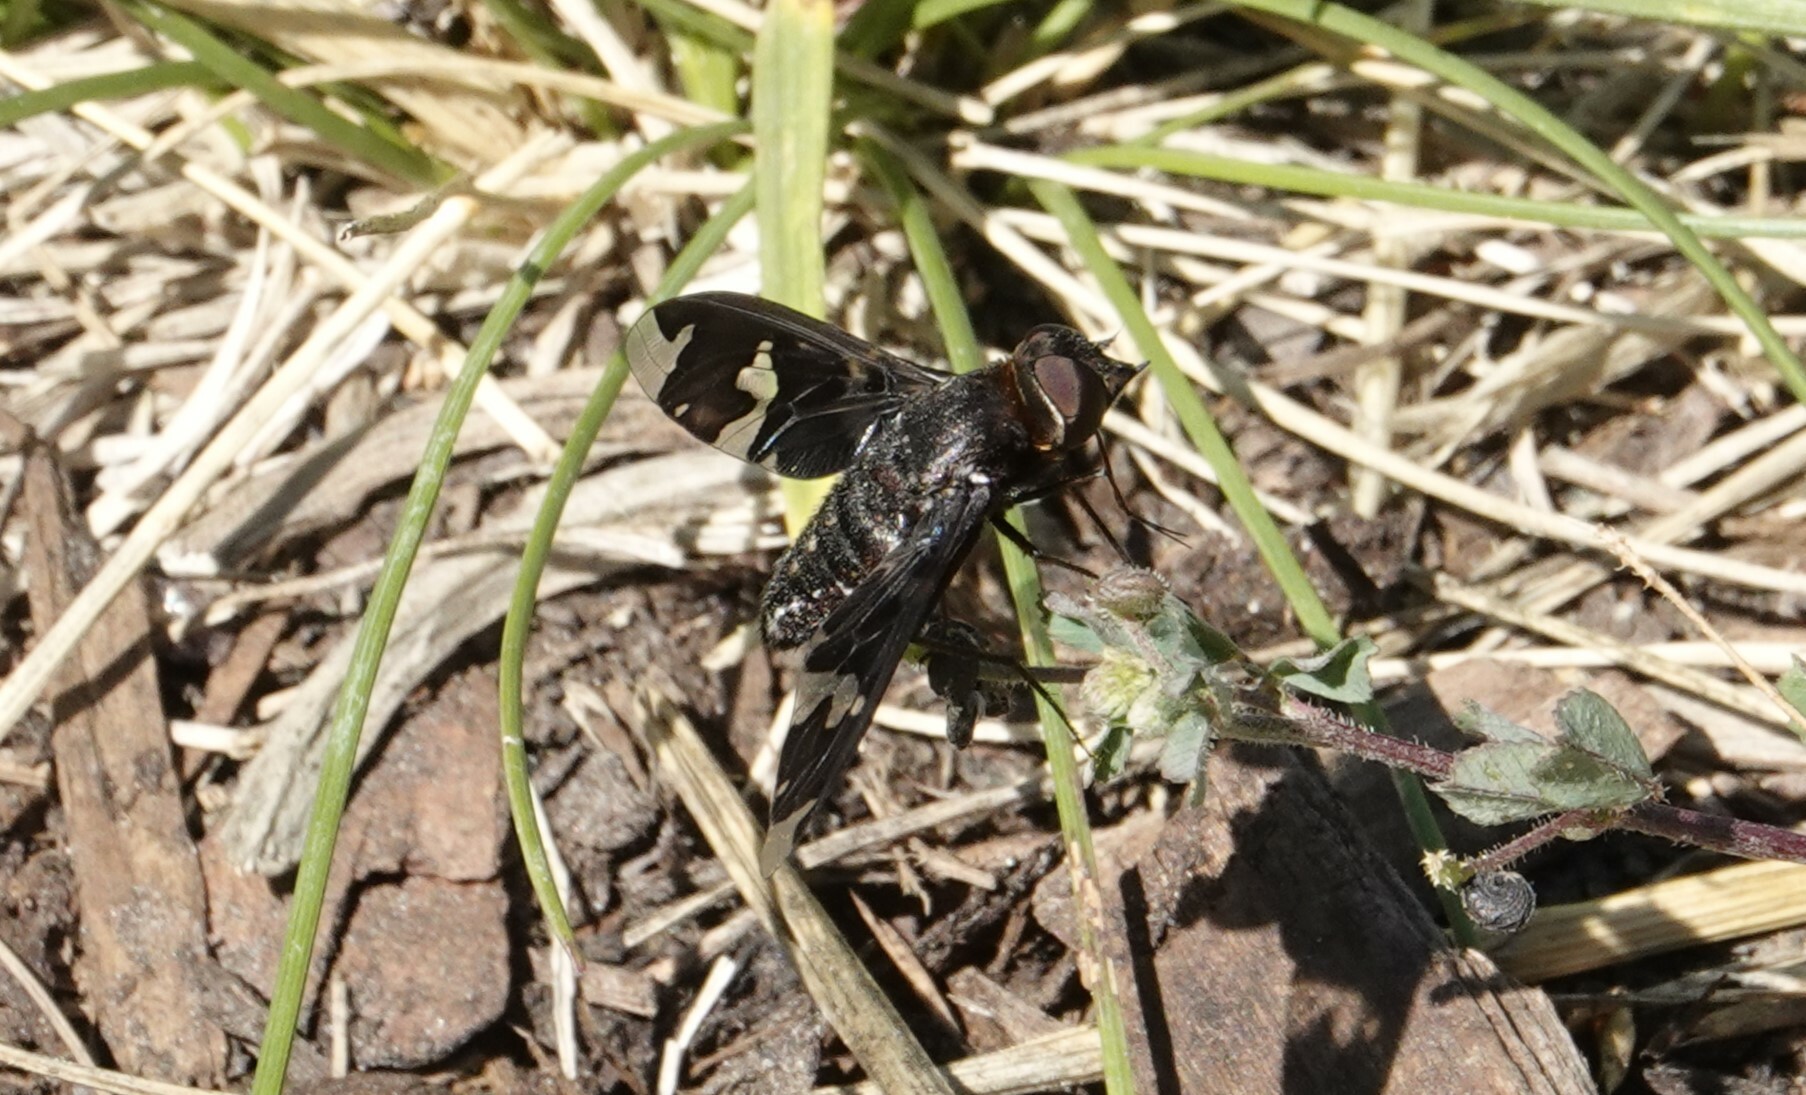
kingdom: Animalia
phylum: Arthropoda
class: Insecta
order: Diptera
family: Bombyliidae
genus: Exoprosopa
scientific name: Exoprosopa decora
